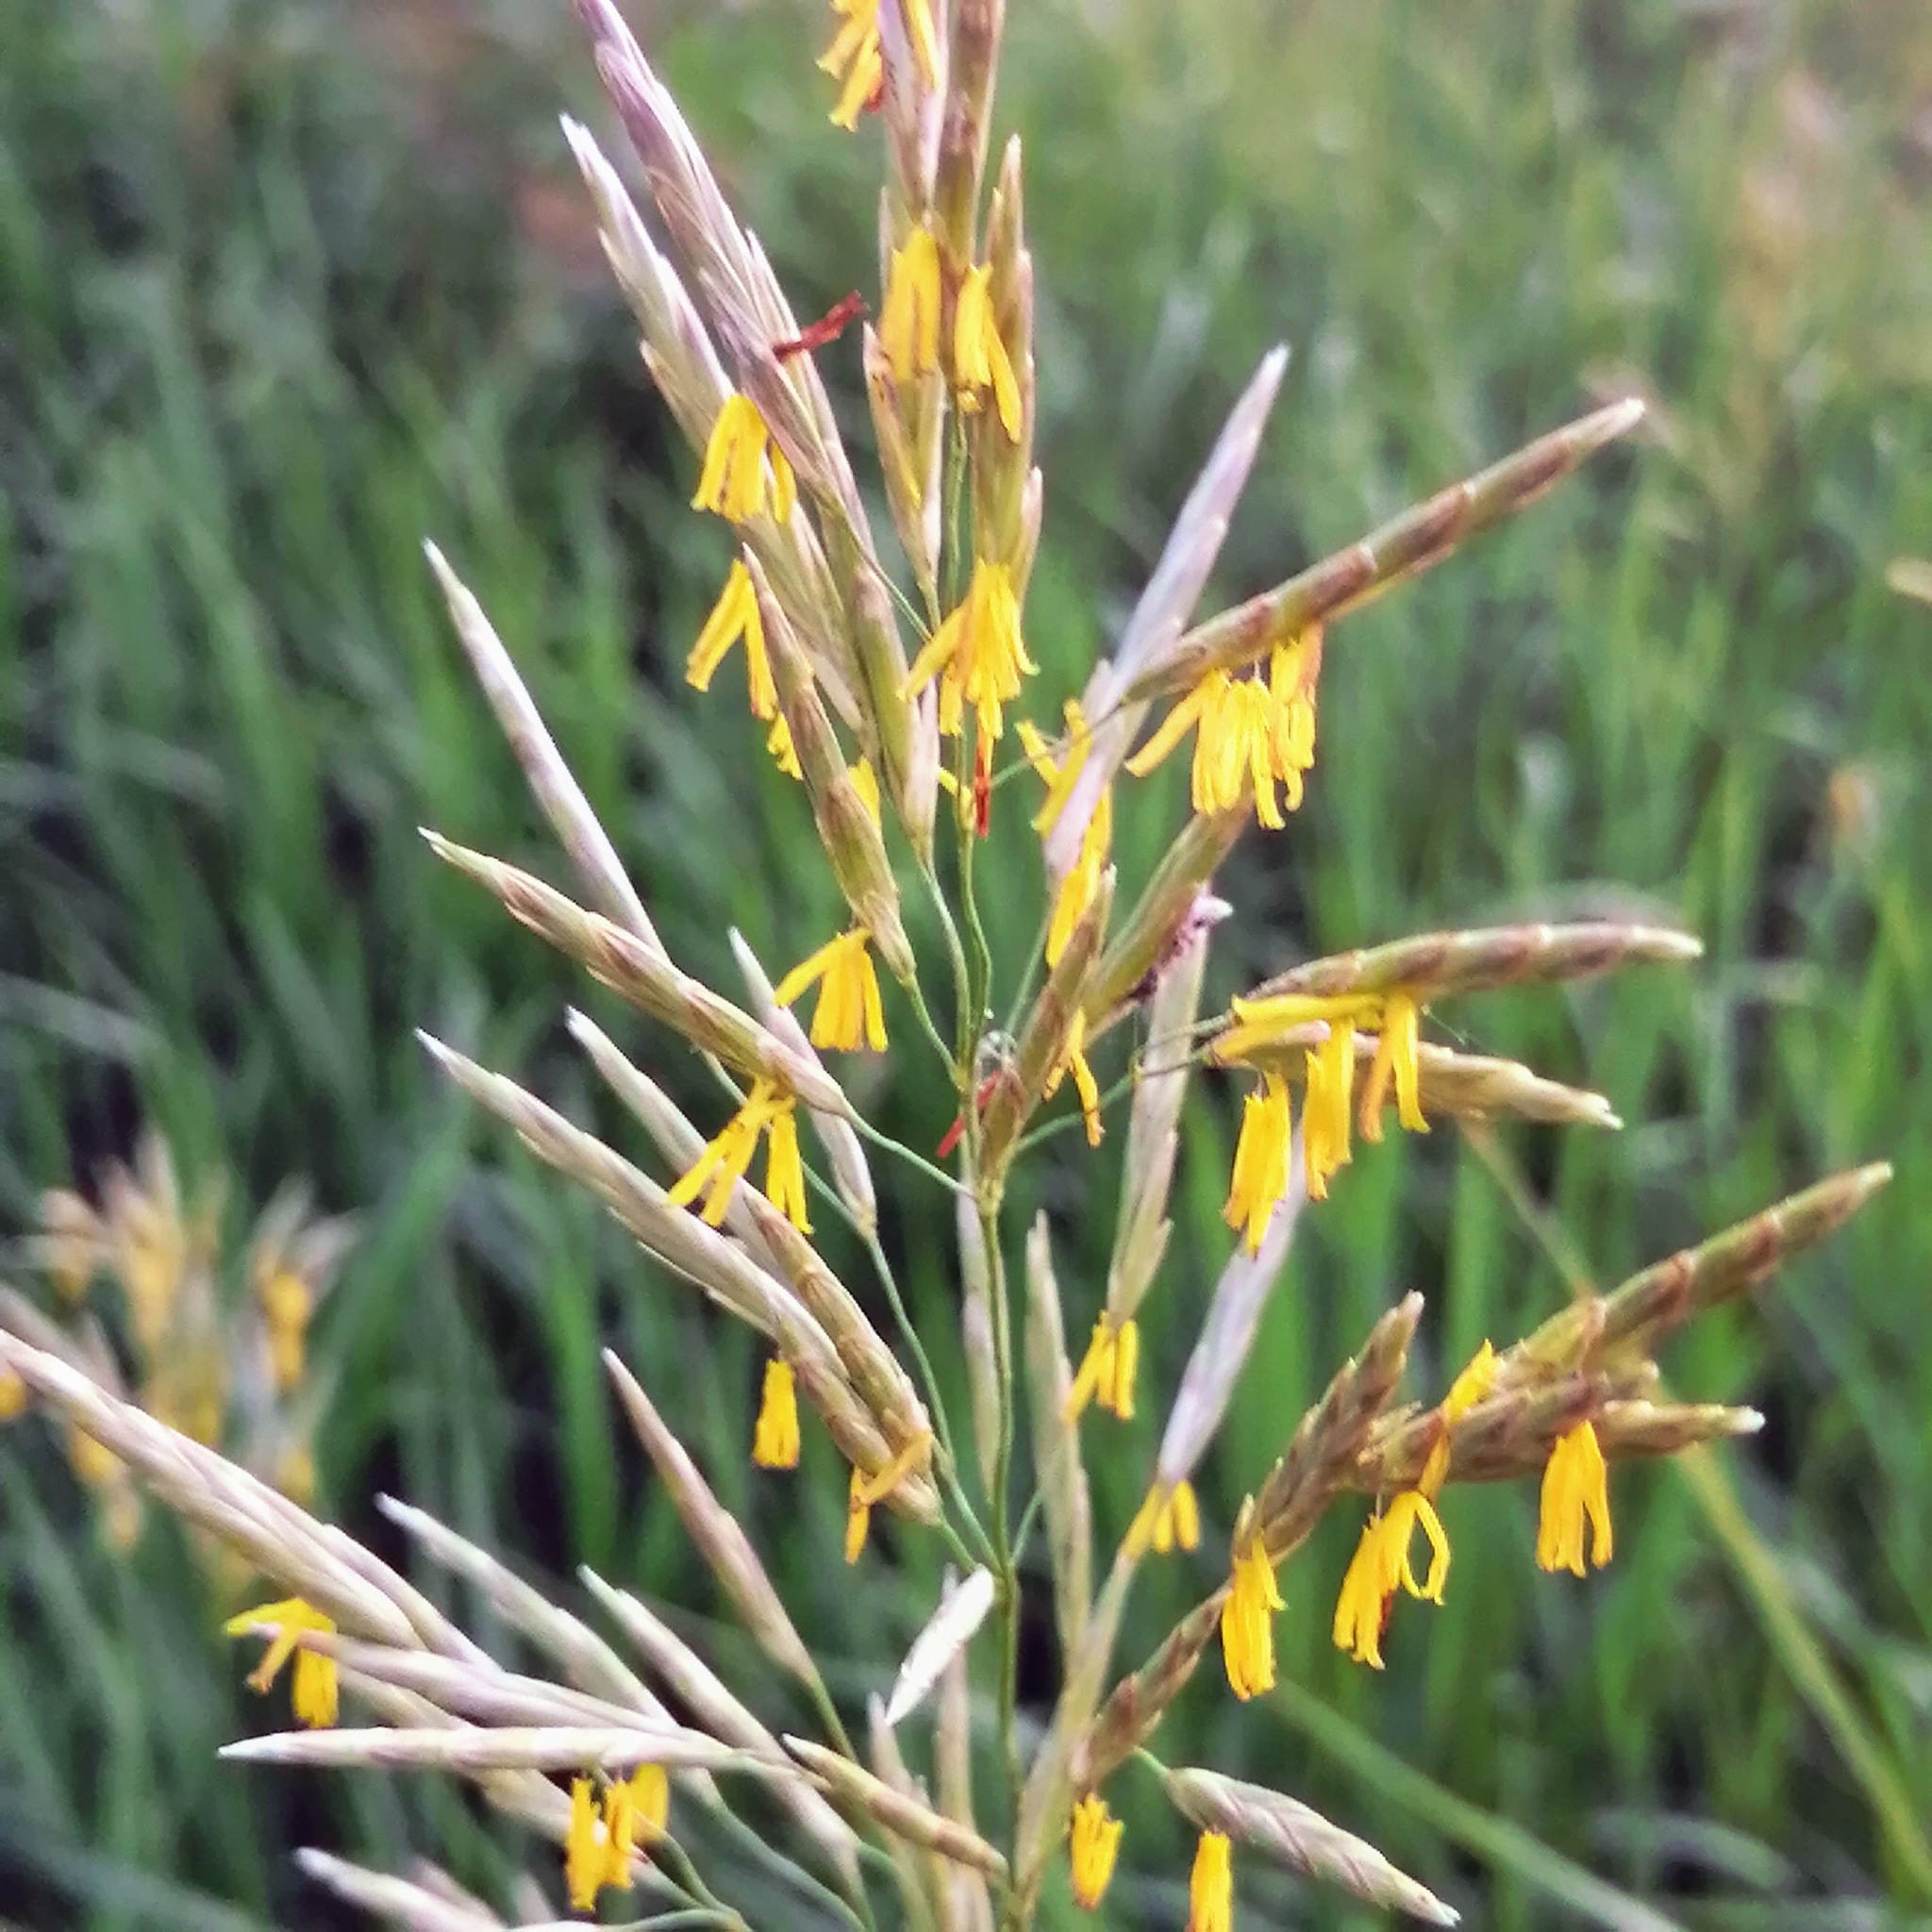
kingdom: Plantae
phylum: Tracheophyta
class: Liliopsida
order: Poales
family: Poaceae
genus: Bromus
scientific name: Bromus inermis
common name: Smooth brome
